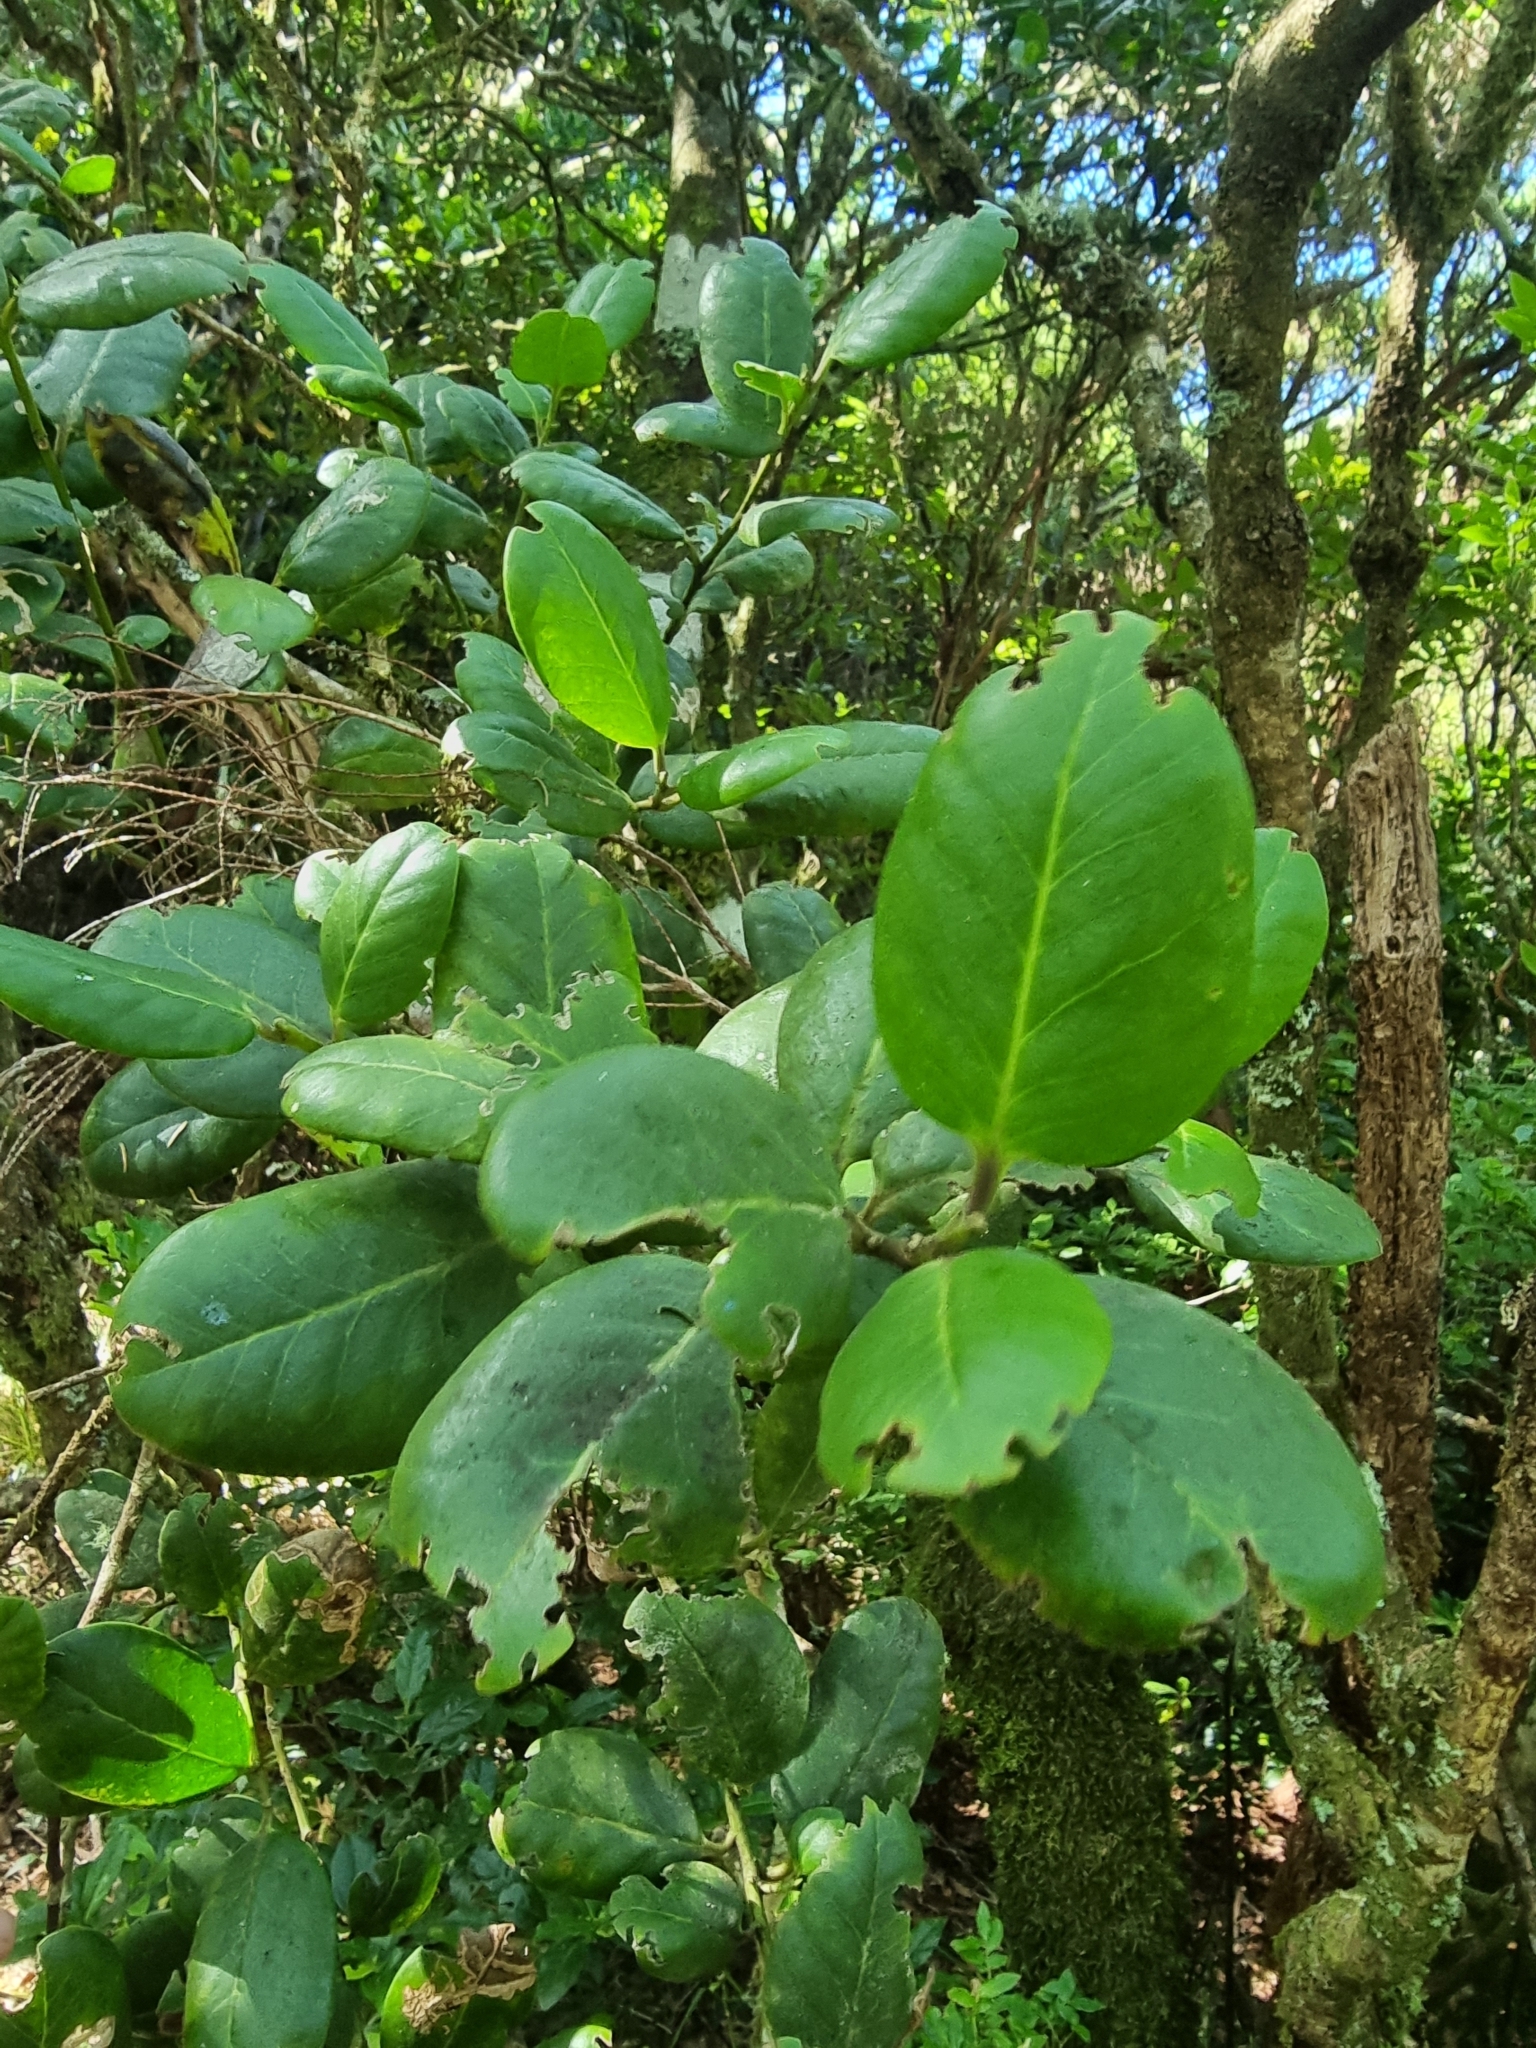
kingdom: Plantae
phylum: Tracheophyta
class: Magnoliopsida
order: Aquifoliales
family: Aquifoliaceae
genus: Ilex
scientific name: Ilex perado
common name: Madeira holly
